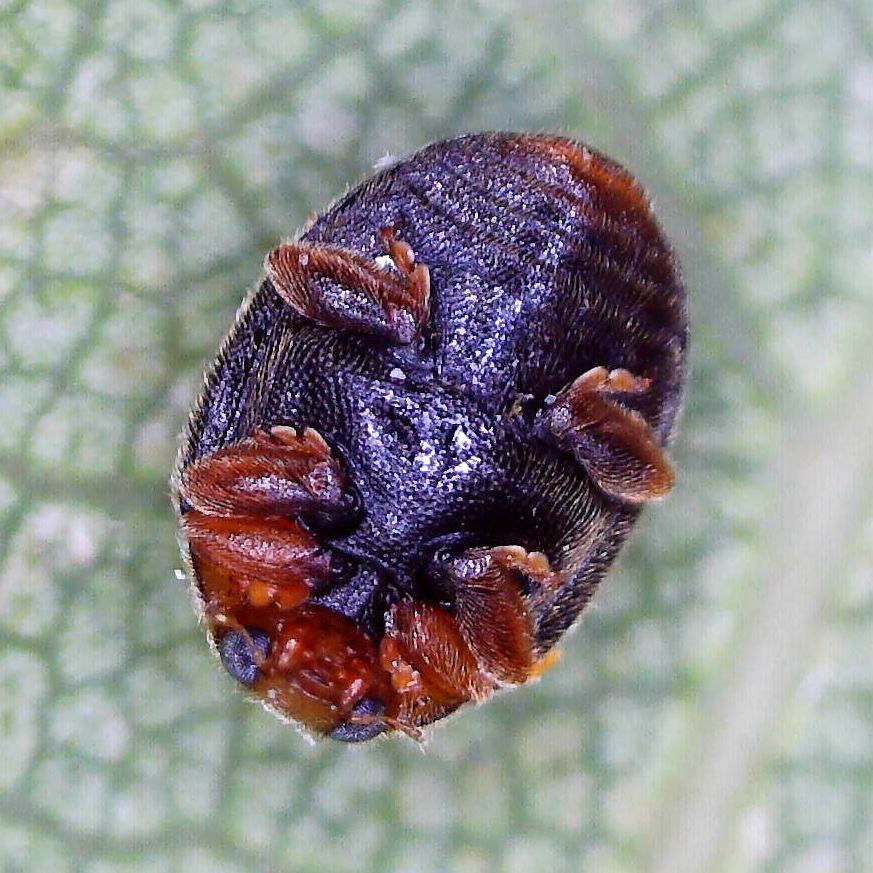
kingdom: Animalia
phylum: Arthropoda
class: Insecta
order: Coleoptera
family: Coccinellidae
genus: Scymnus
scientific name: Scymnus auritus
